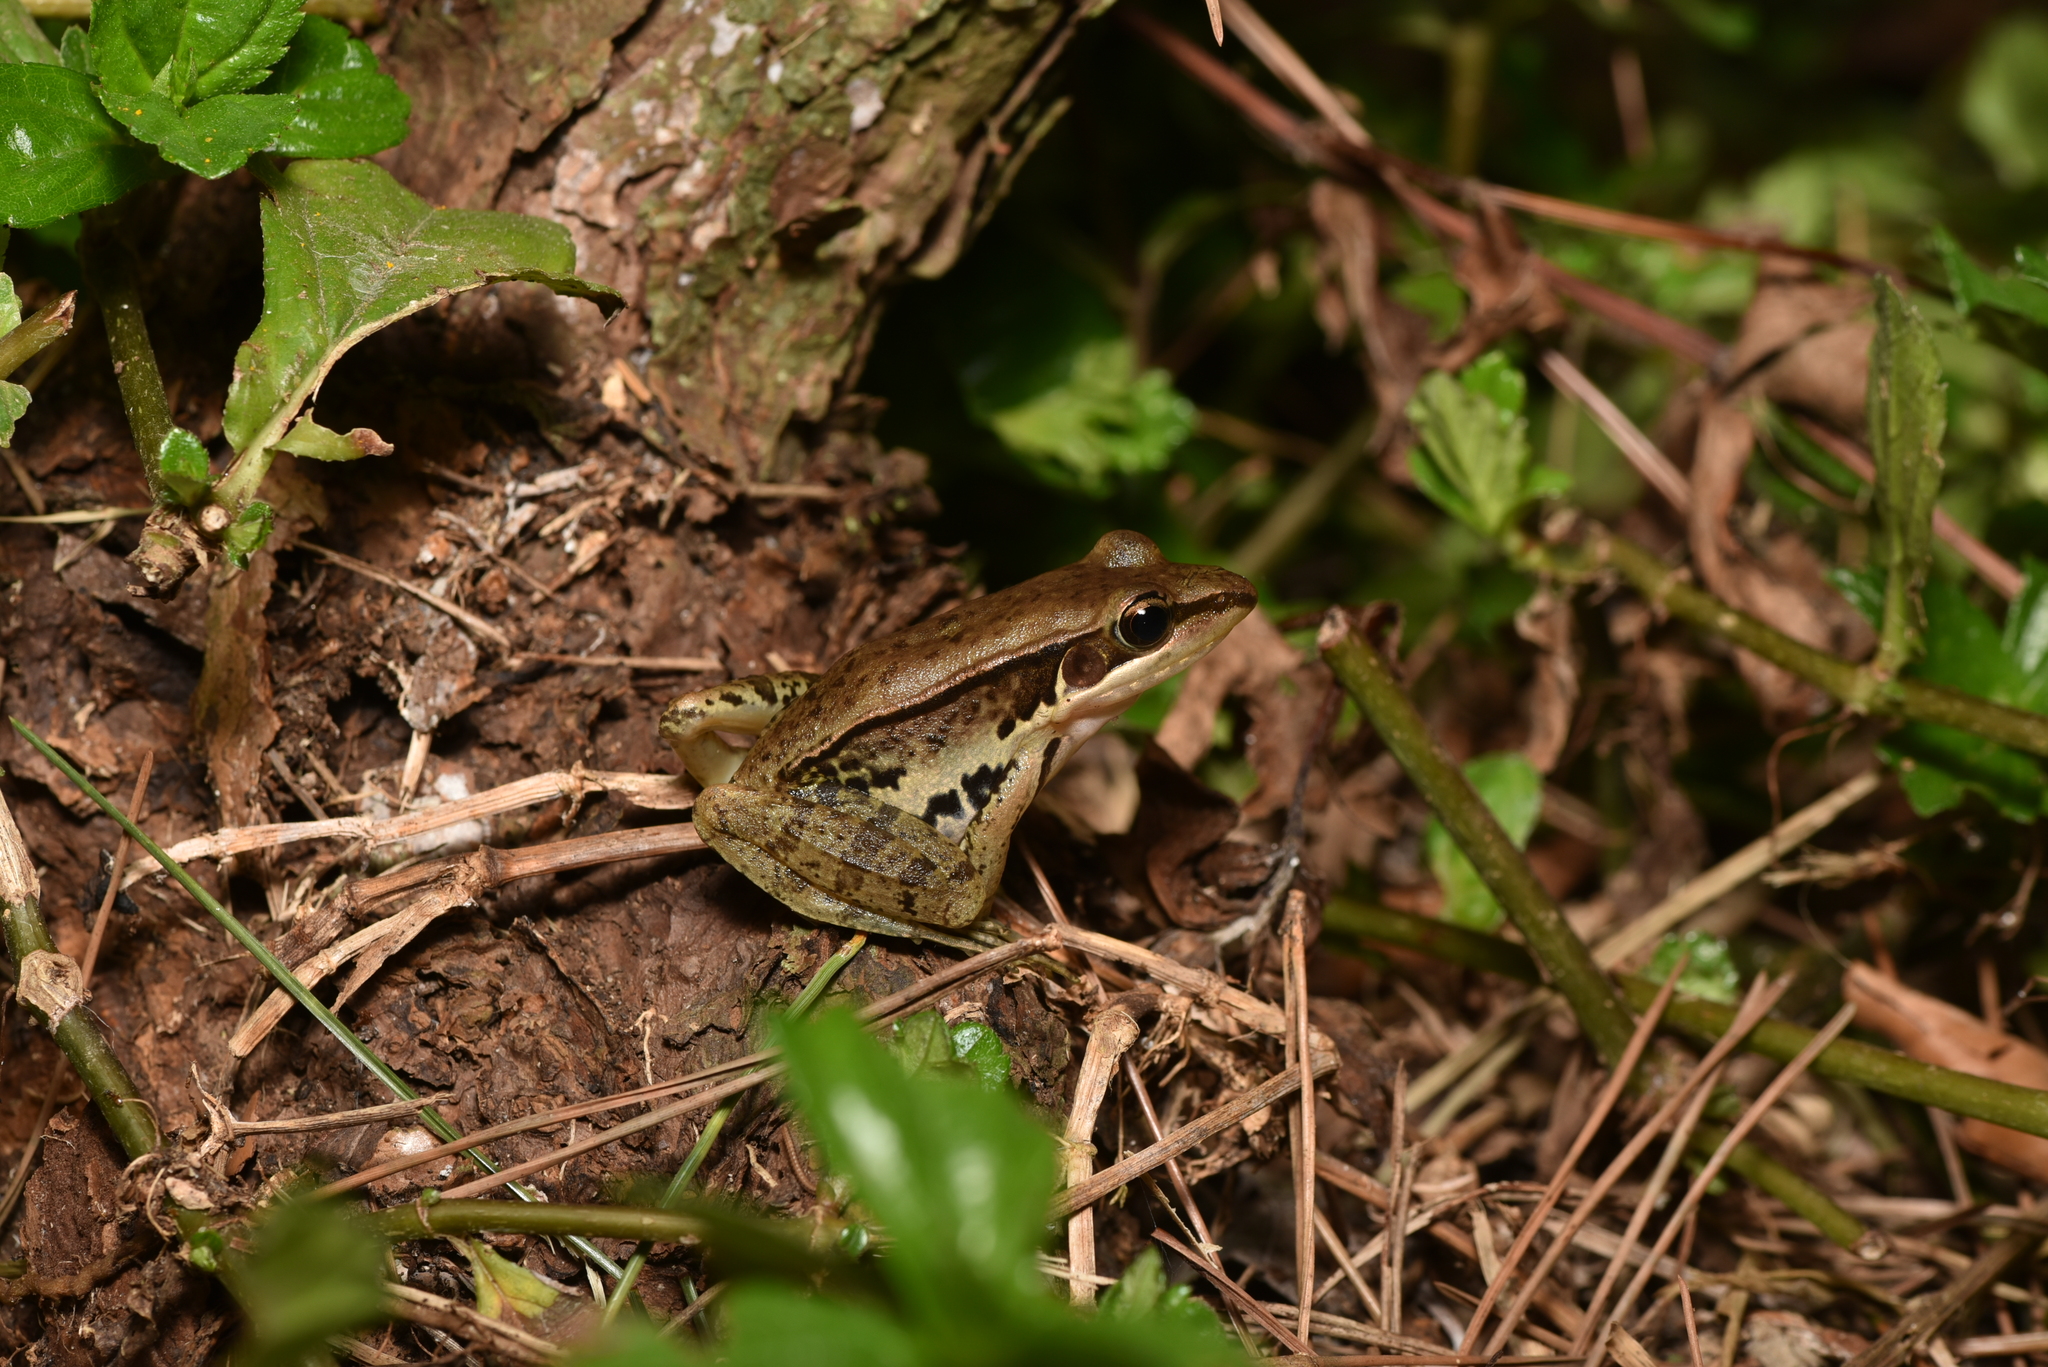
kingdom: Animalia
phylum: Chordata
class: Amphibia
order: Anura
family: Ranidae
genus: Sylvirana
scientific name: Sylvirana guentheri
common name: Guenther's amoy frog
